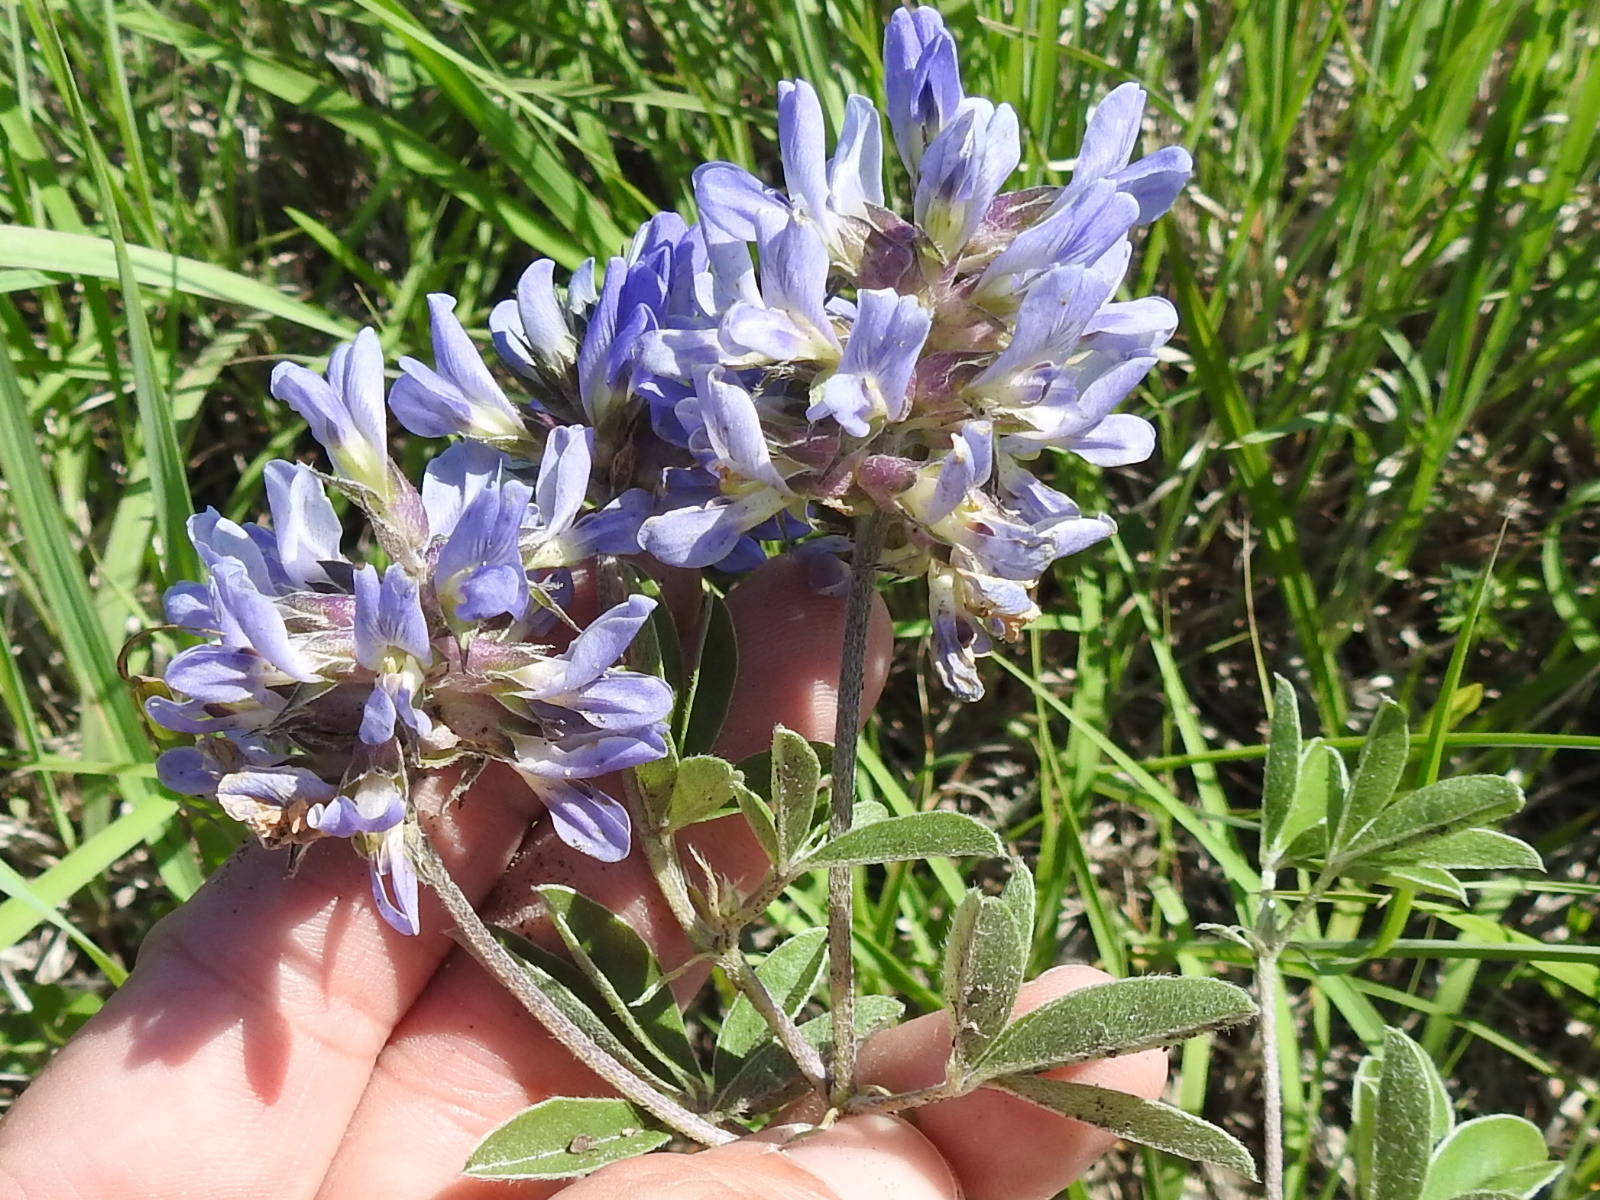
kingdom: Plantae
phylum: Tracheophyta
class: Magnoliopsida
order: Fabales
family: Fabaceae
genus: Pediomelum
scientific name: Pediomelum cuspidatum
